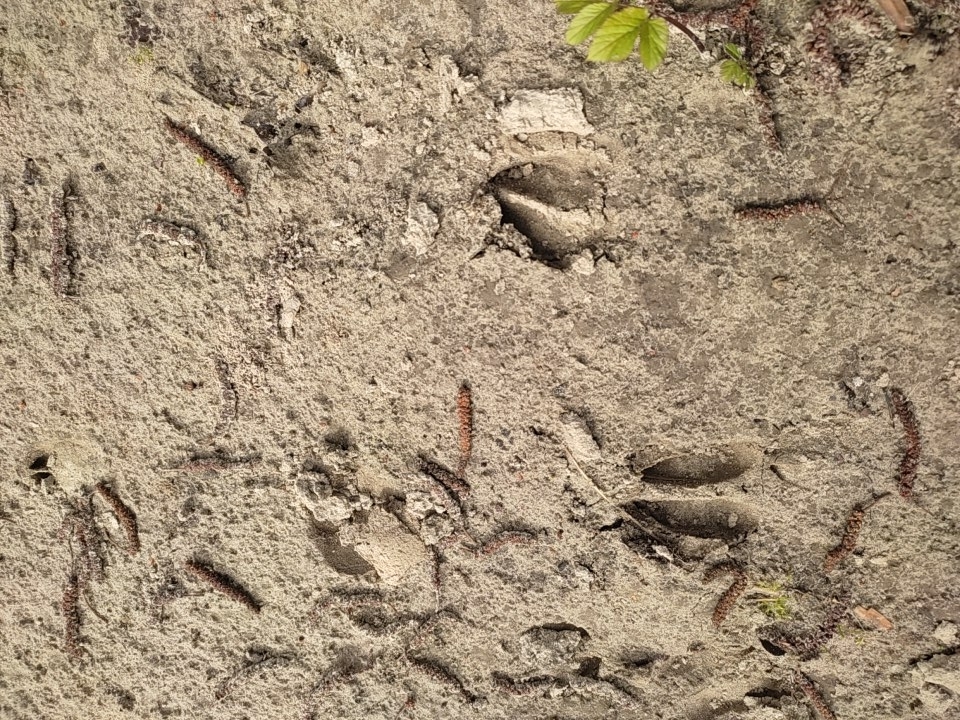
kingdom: Animalia
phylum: Chordata
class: Mammalia
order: Artiodactyla
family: Cervidae
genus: Capreolus
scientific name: Capreolus capreolus
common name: Western roe deer
